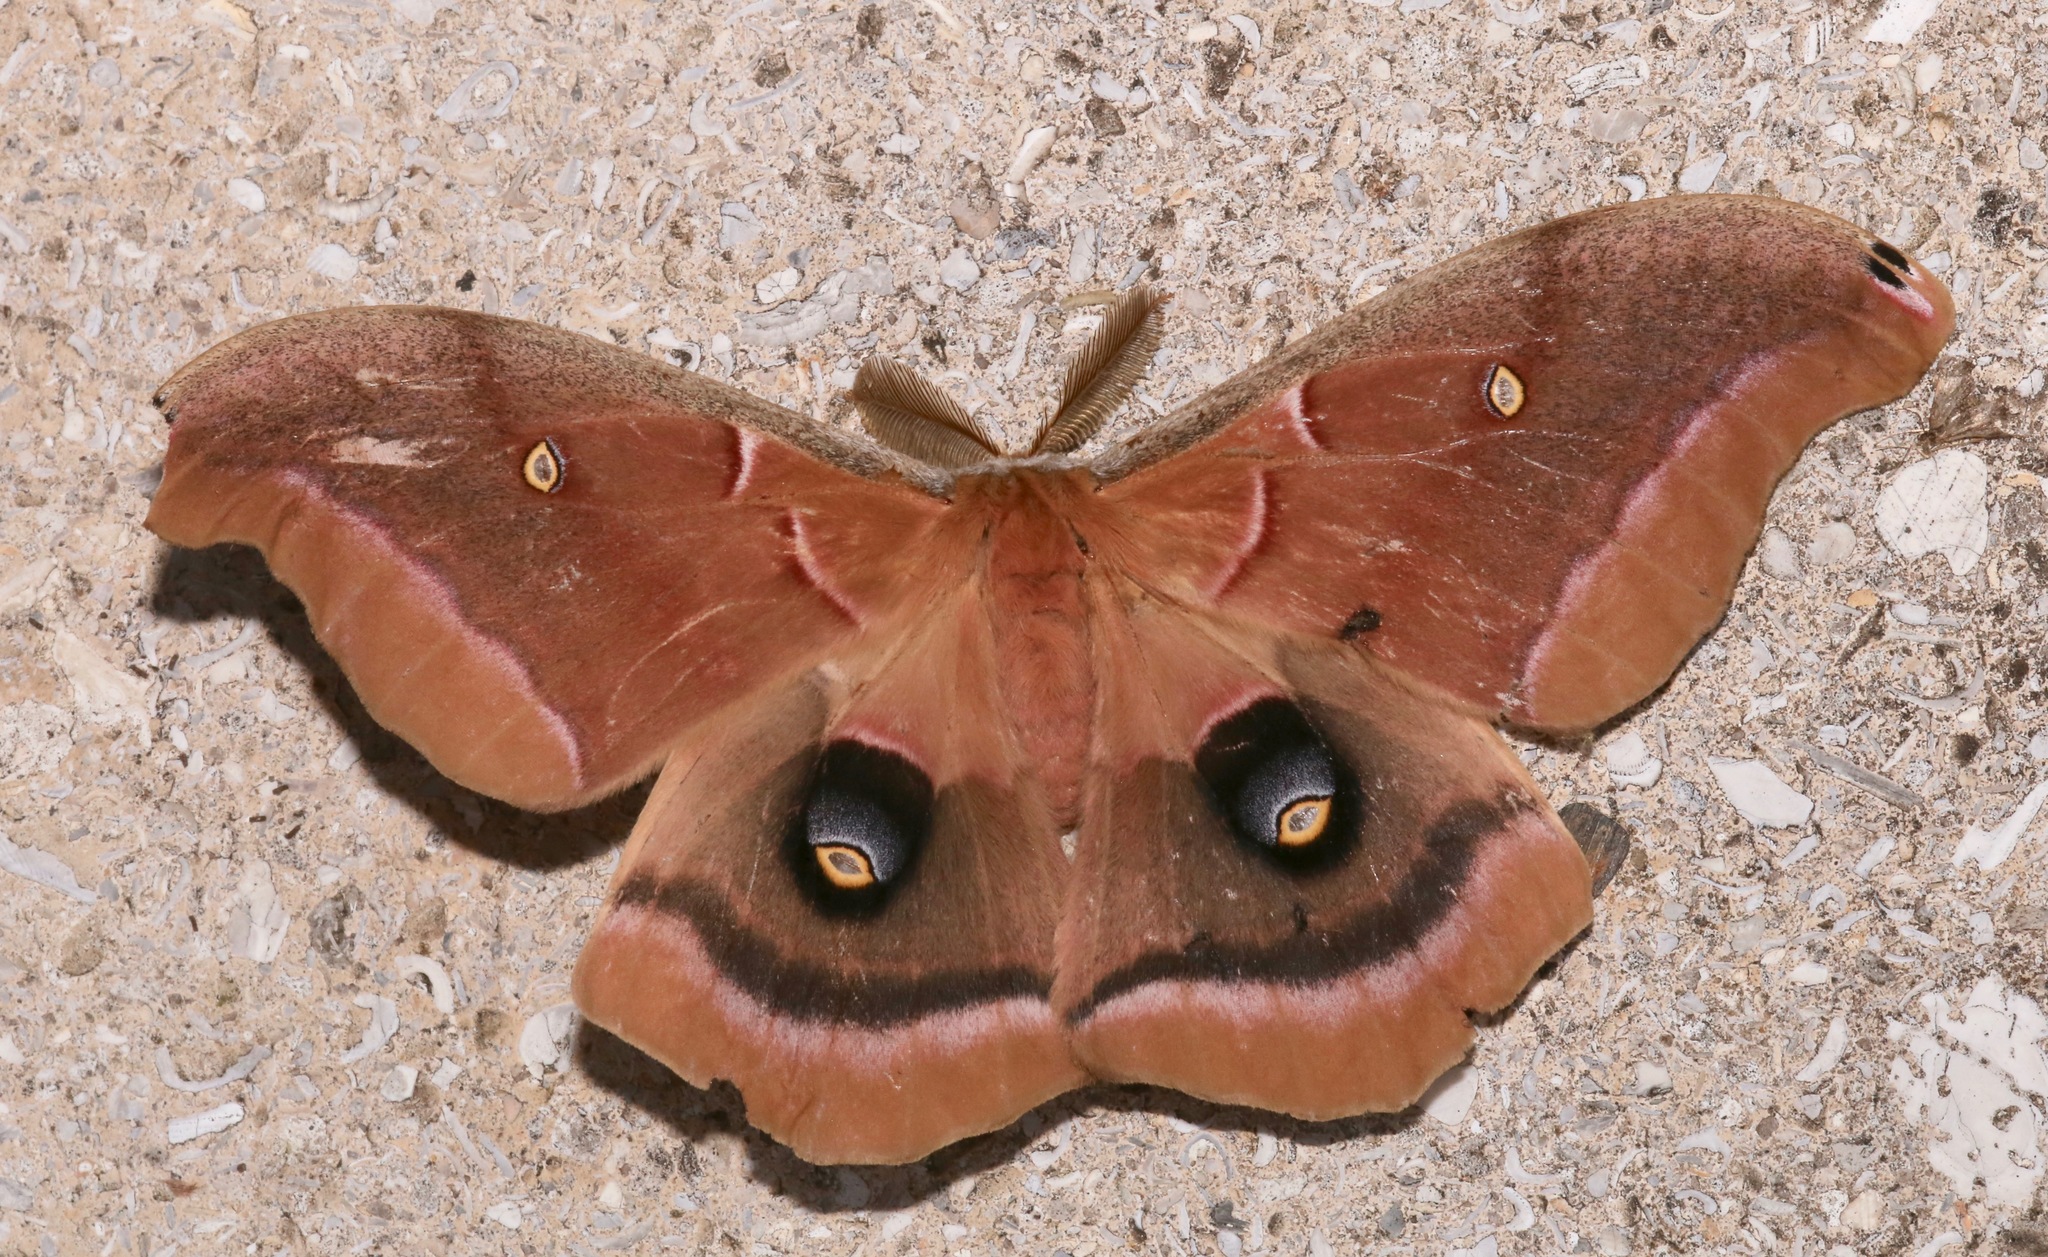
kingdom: Animalia
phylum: Arthropoda
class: Insecta
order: Lepidoptera
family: Saturniidae
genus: Antheraea
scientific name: Antheraea polyphemus
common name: Polyphemus moth
